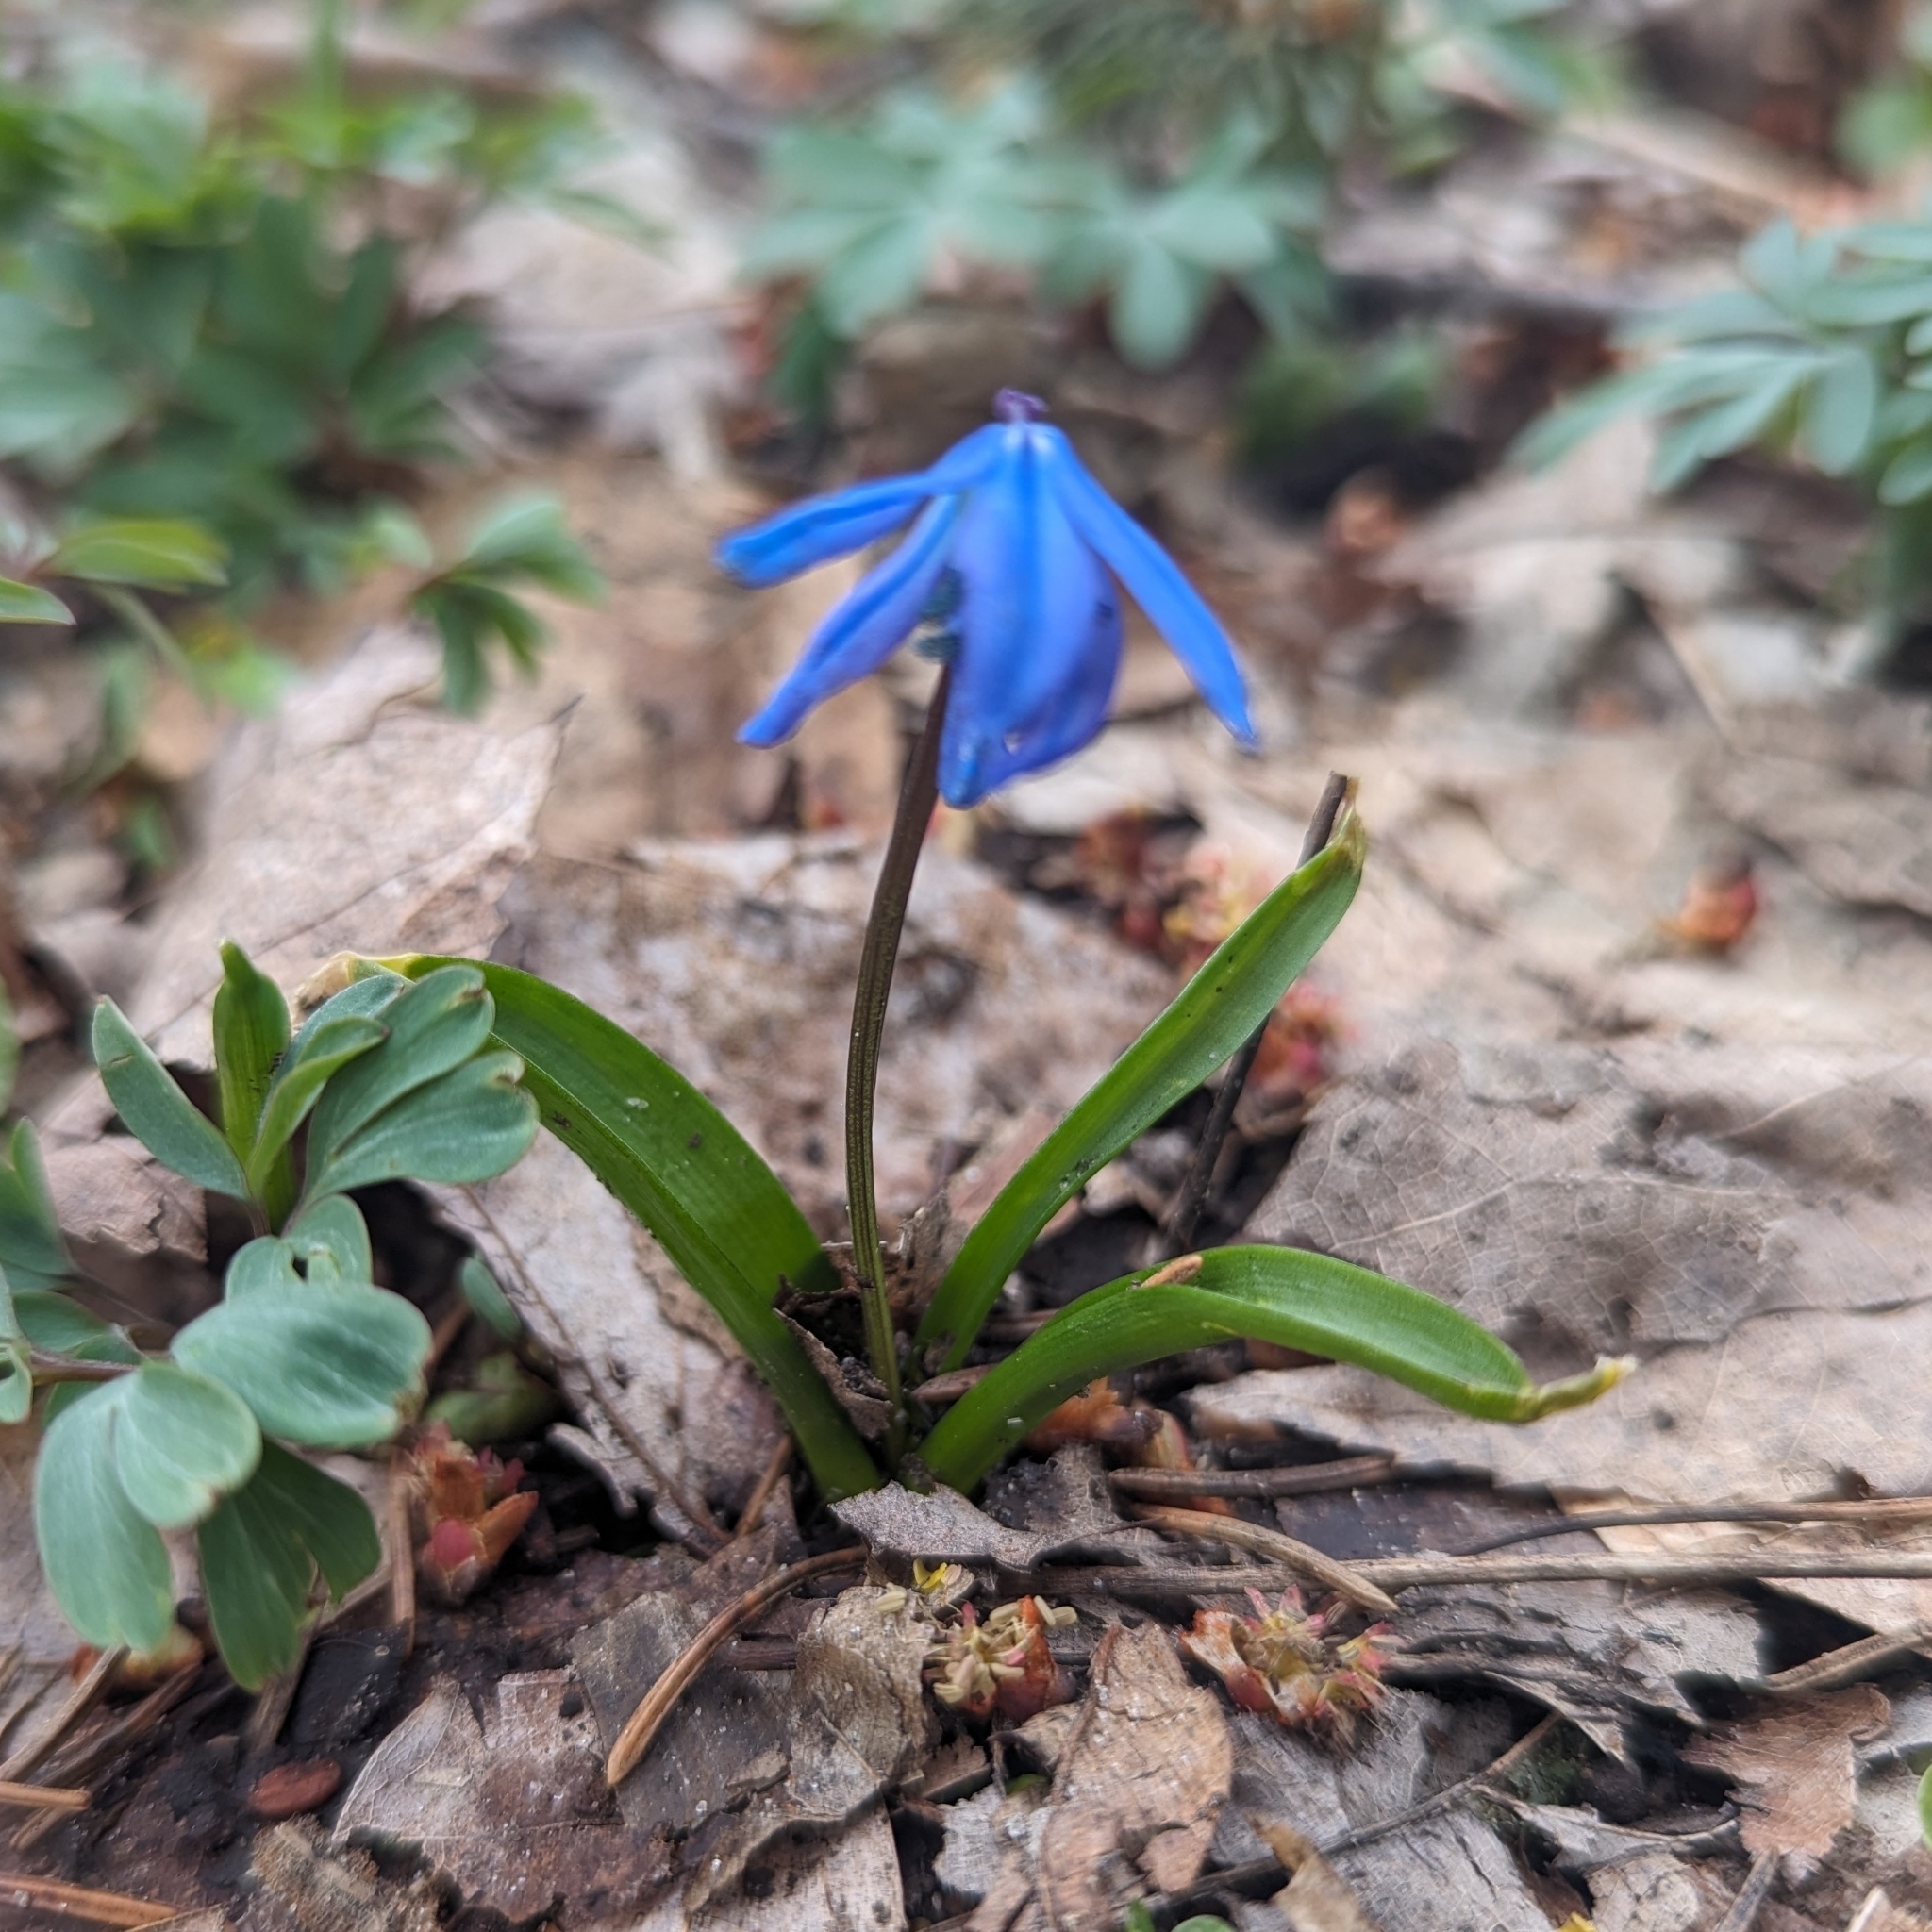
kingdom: Plantae
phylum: Tracheophyta
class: Liliopsida
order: Asparagales
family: Asparagaceae
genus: Scilla
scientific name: Scilla siberica
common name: Siberian squill
